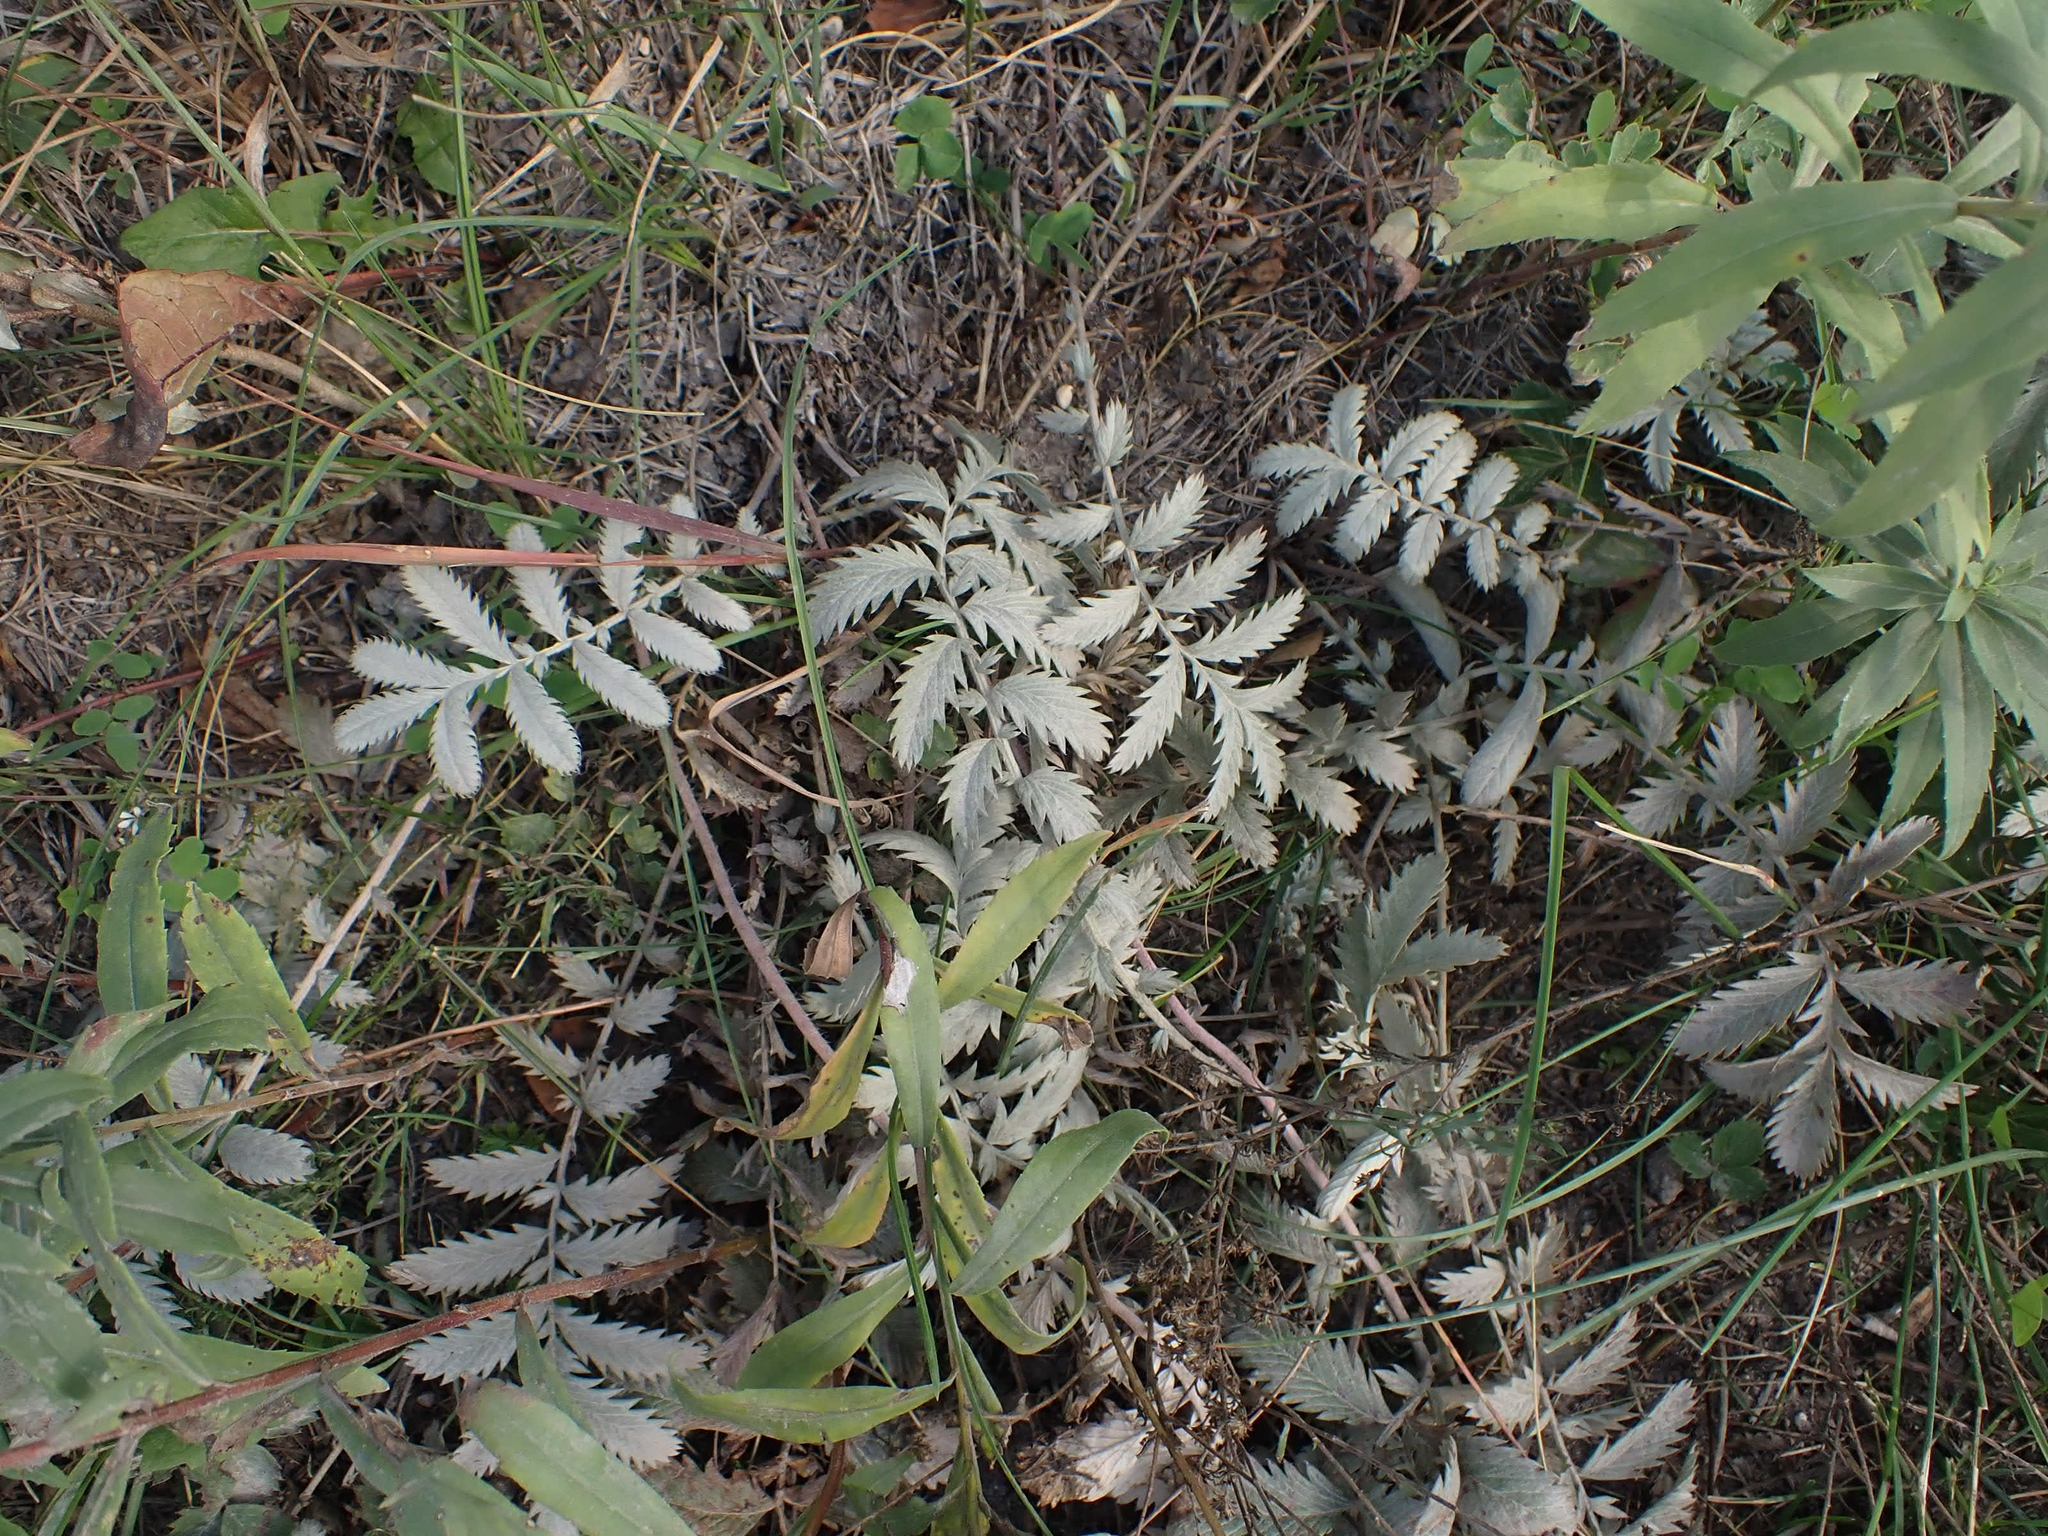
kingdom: Plantae
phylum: Tracheophyta
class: Magnoliopsida
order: Rosales
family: Rosaceae
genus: Argentina
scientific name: Argentina anserina
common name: Common silverweed
